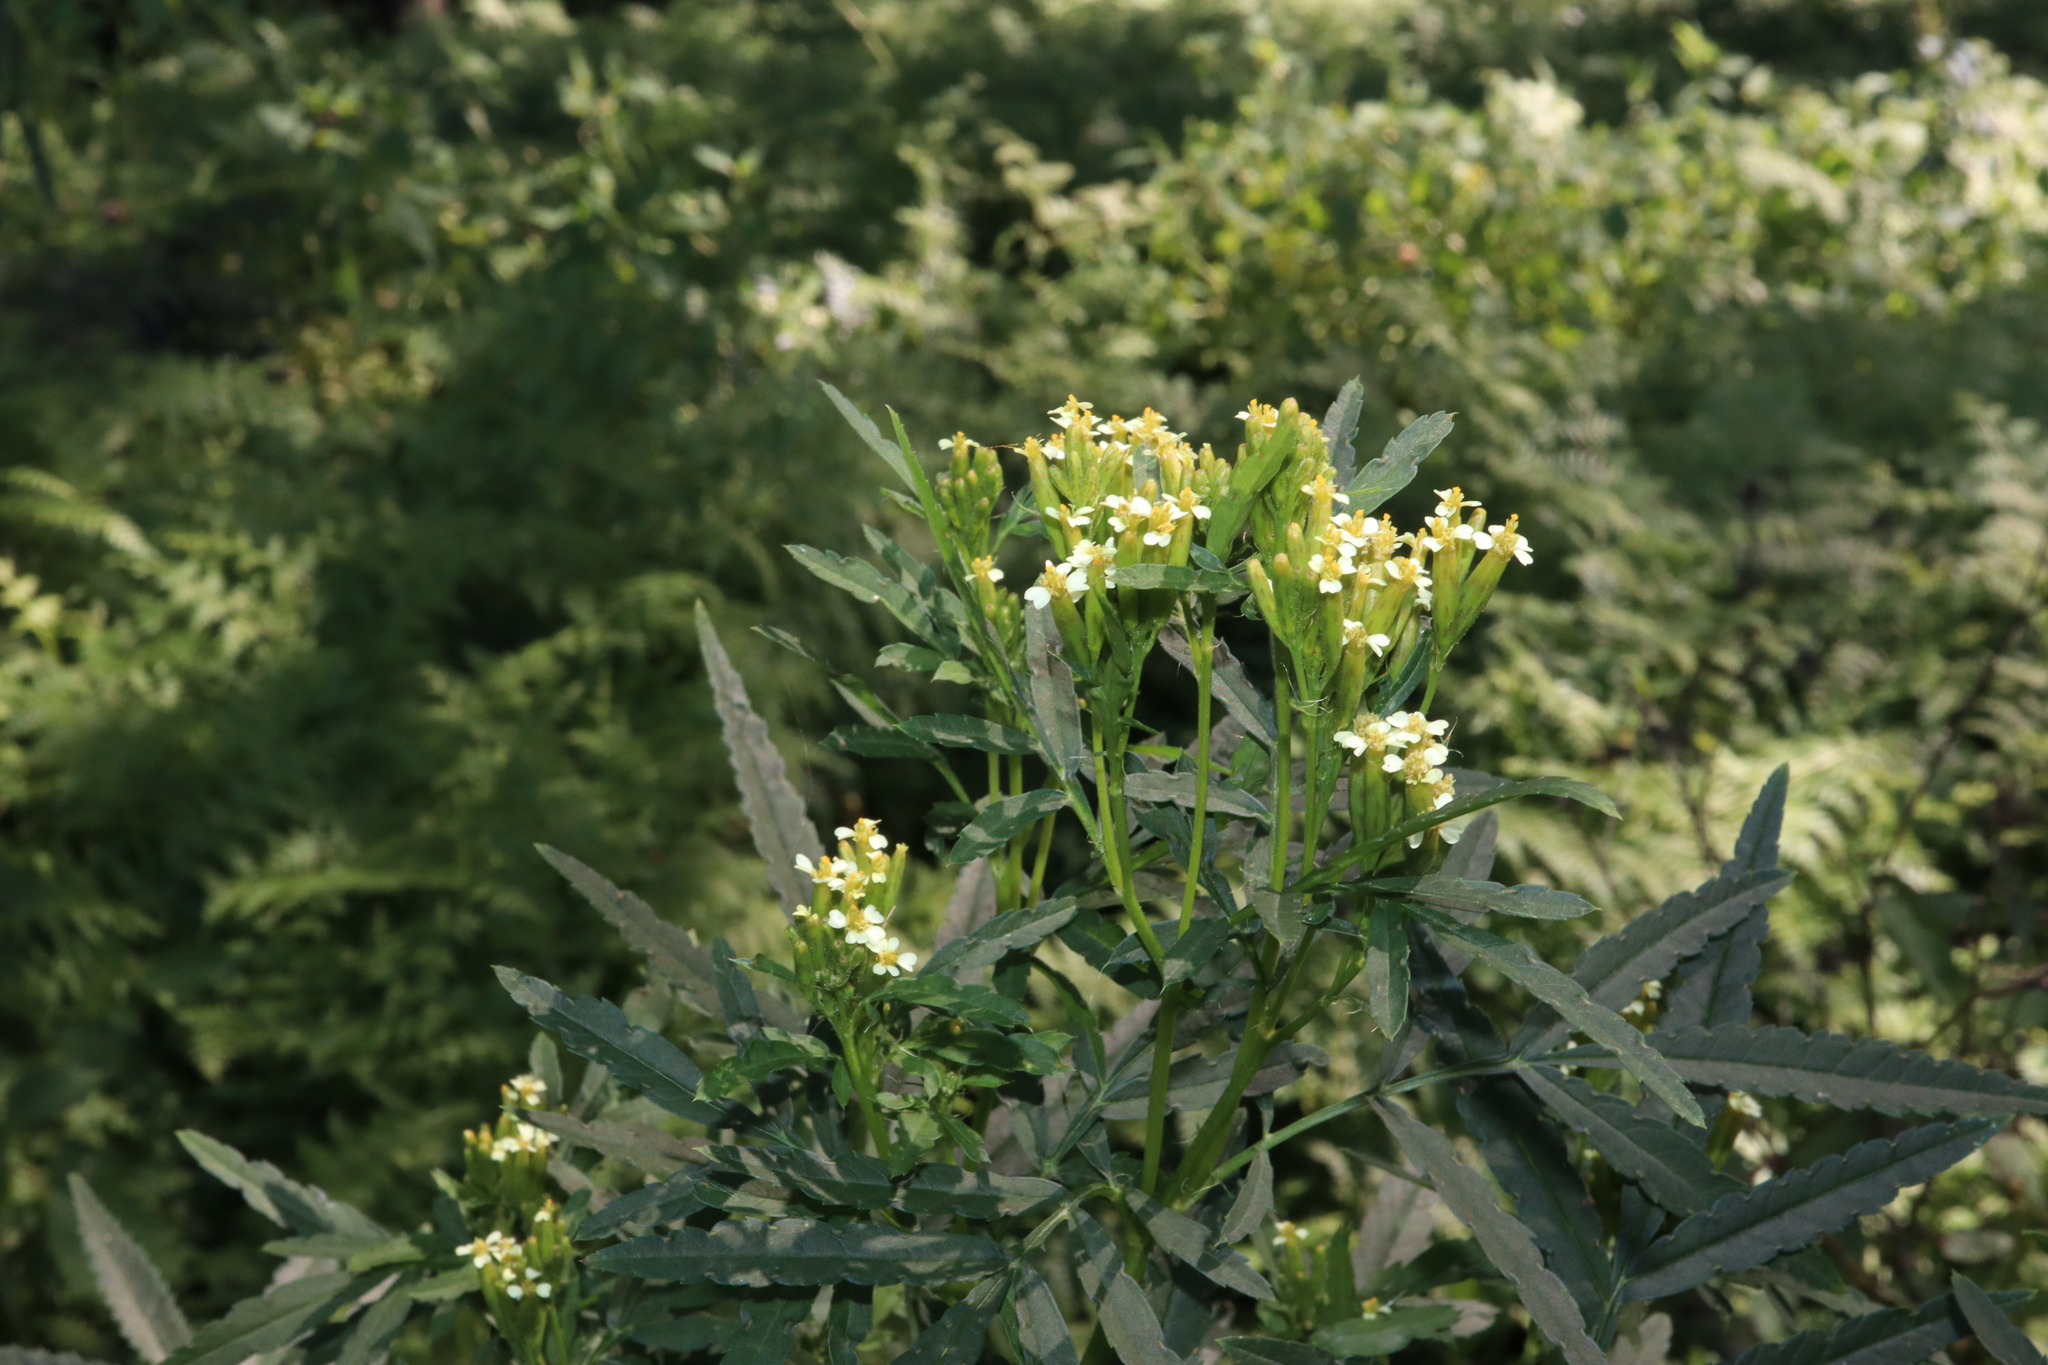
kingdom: Plantae
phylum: Tracheophyta
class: Magnoliopsida
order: Asterales
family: Asteraceae
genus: Tagetes
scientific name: Tagetes minuta
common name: Muster john henry
